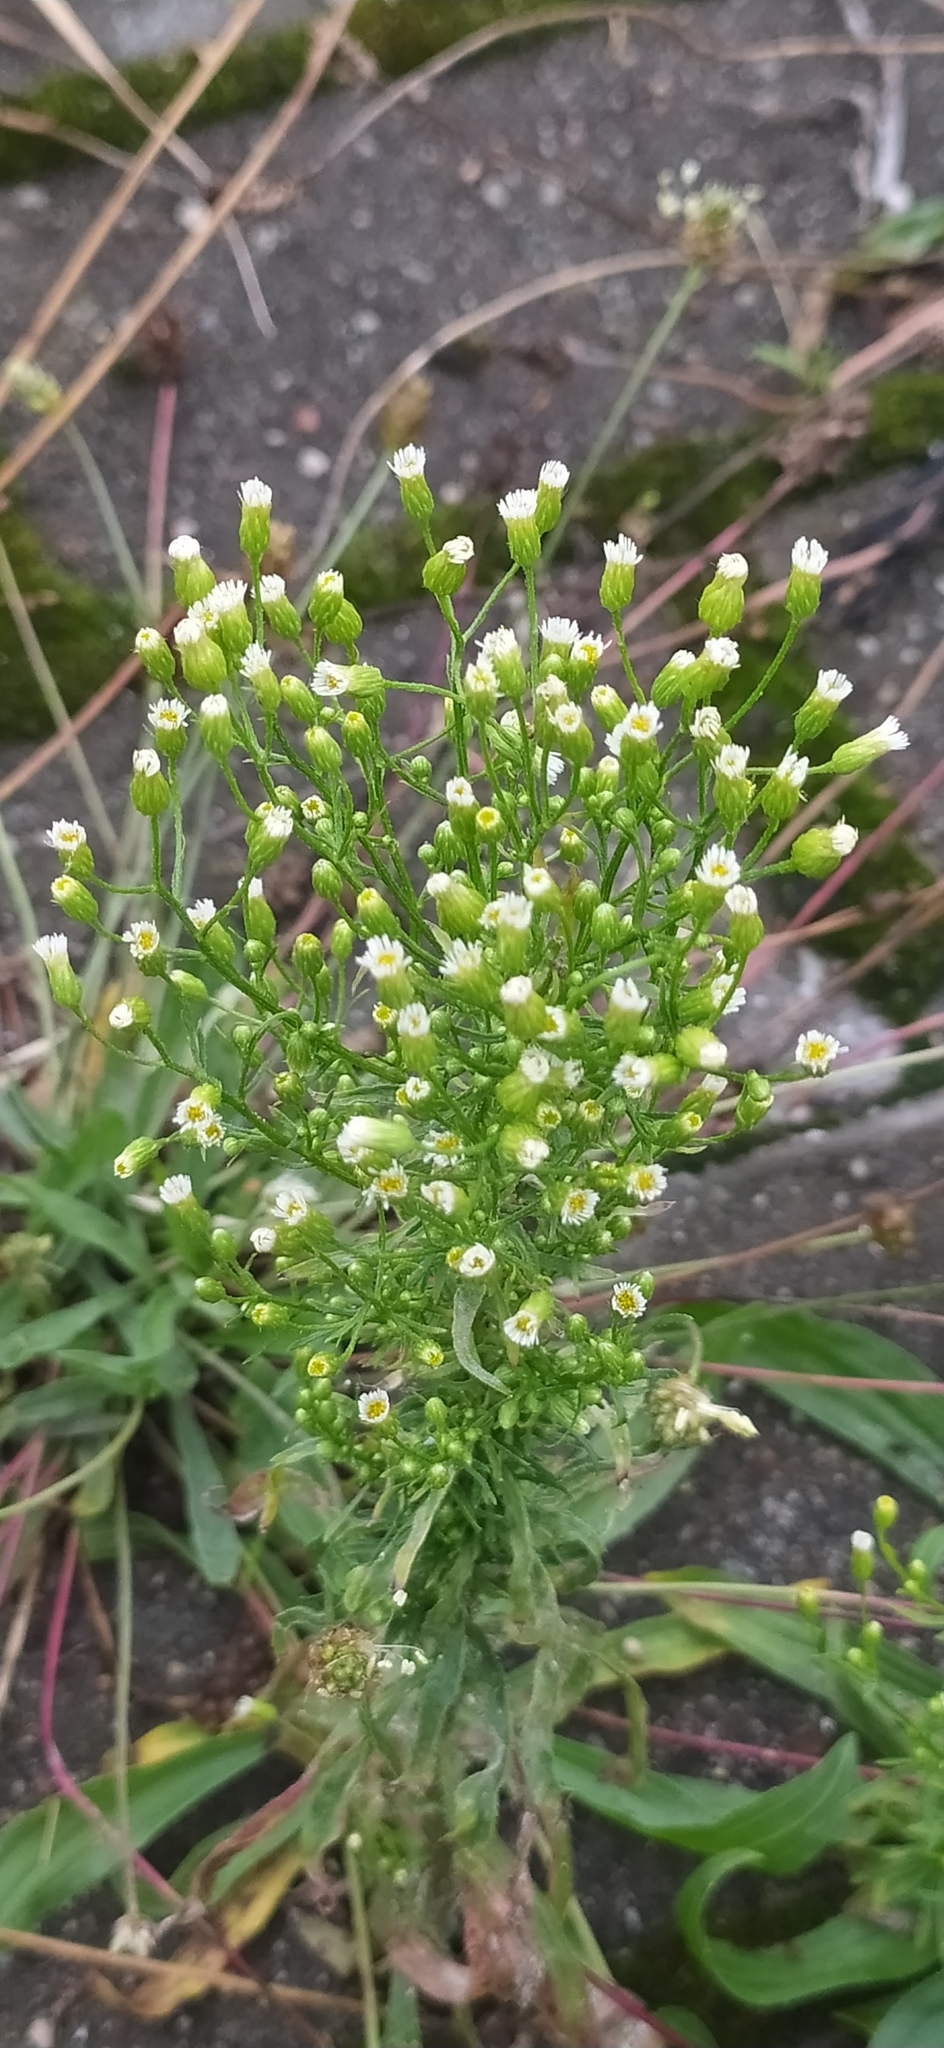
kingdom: Plantae
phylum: Tracheophyta
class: Magnoliopsida
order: Asterales
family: Asteraceae
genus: Erigeron
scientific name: Erigeron canadensis
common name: Canadian fleabane
